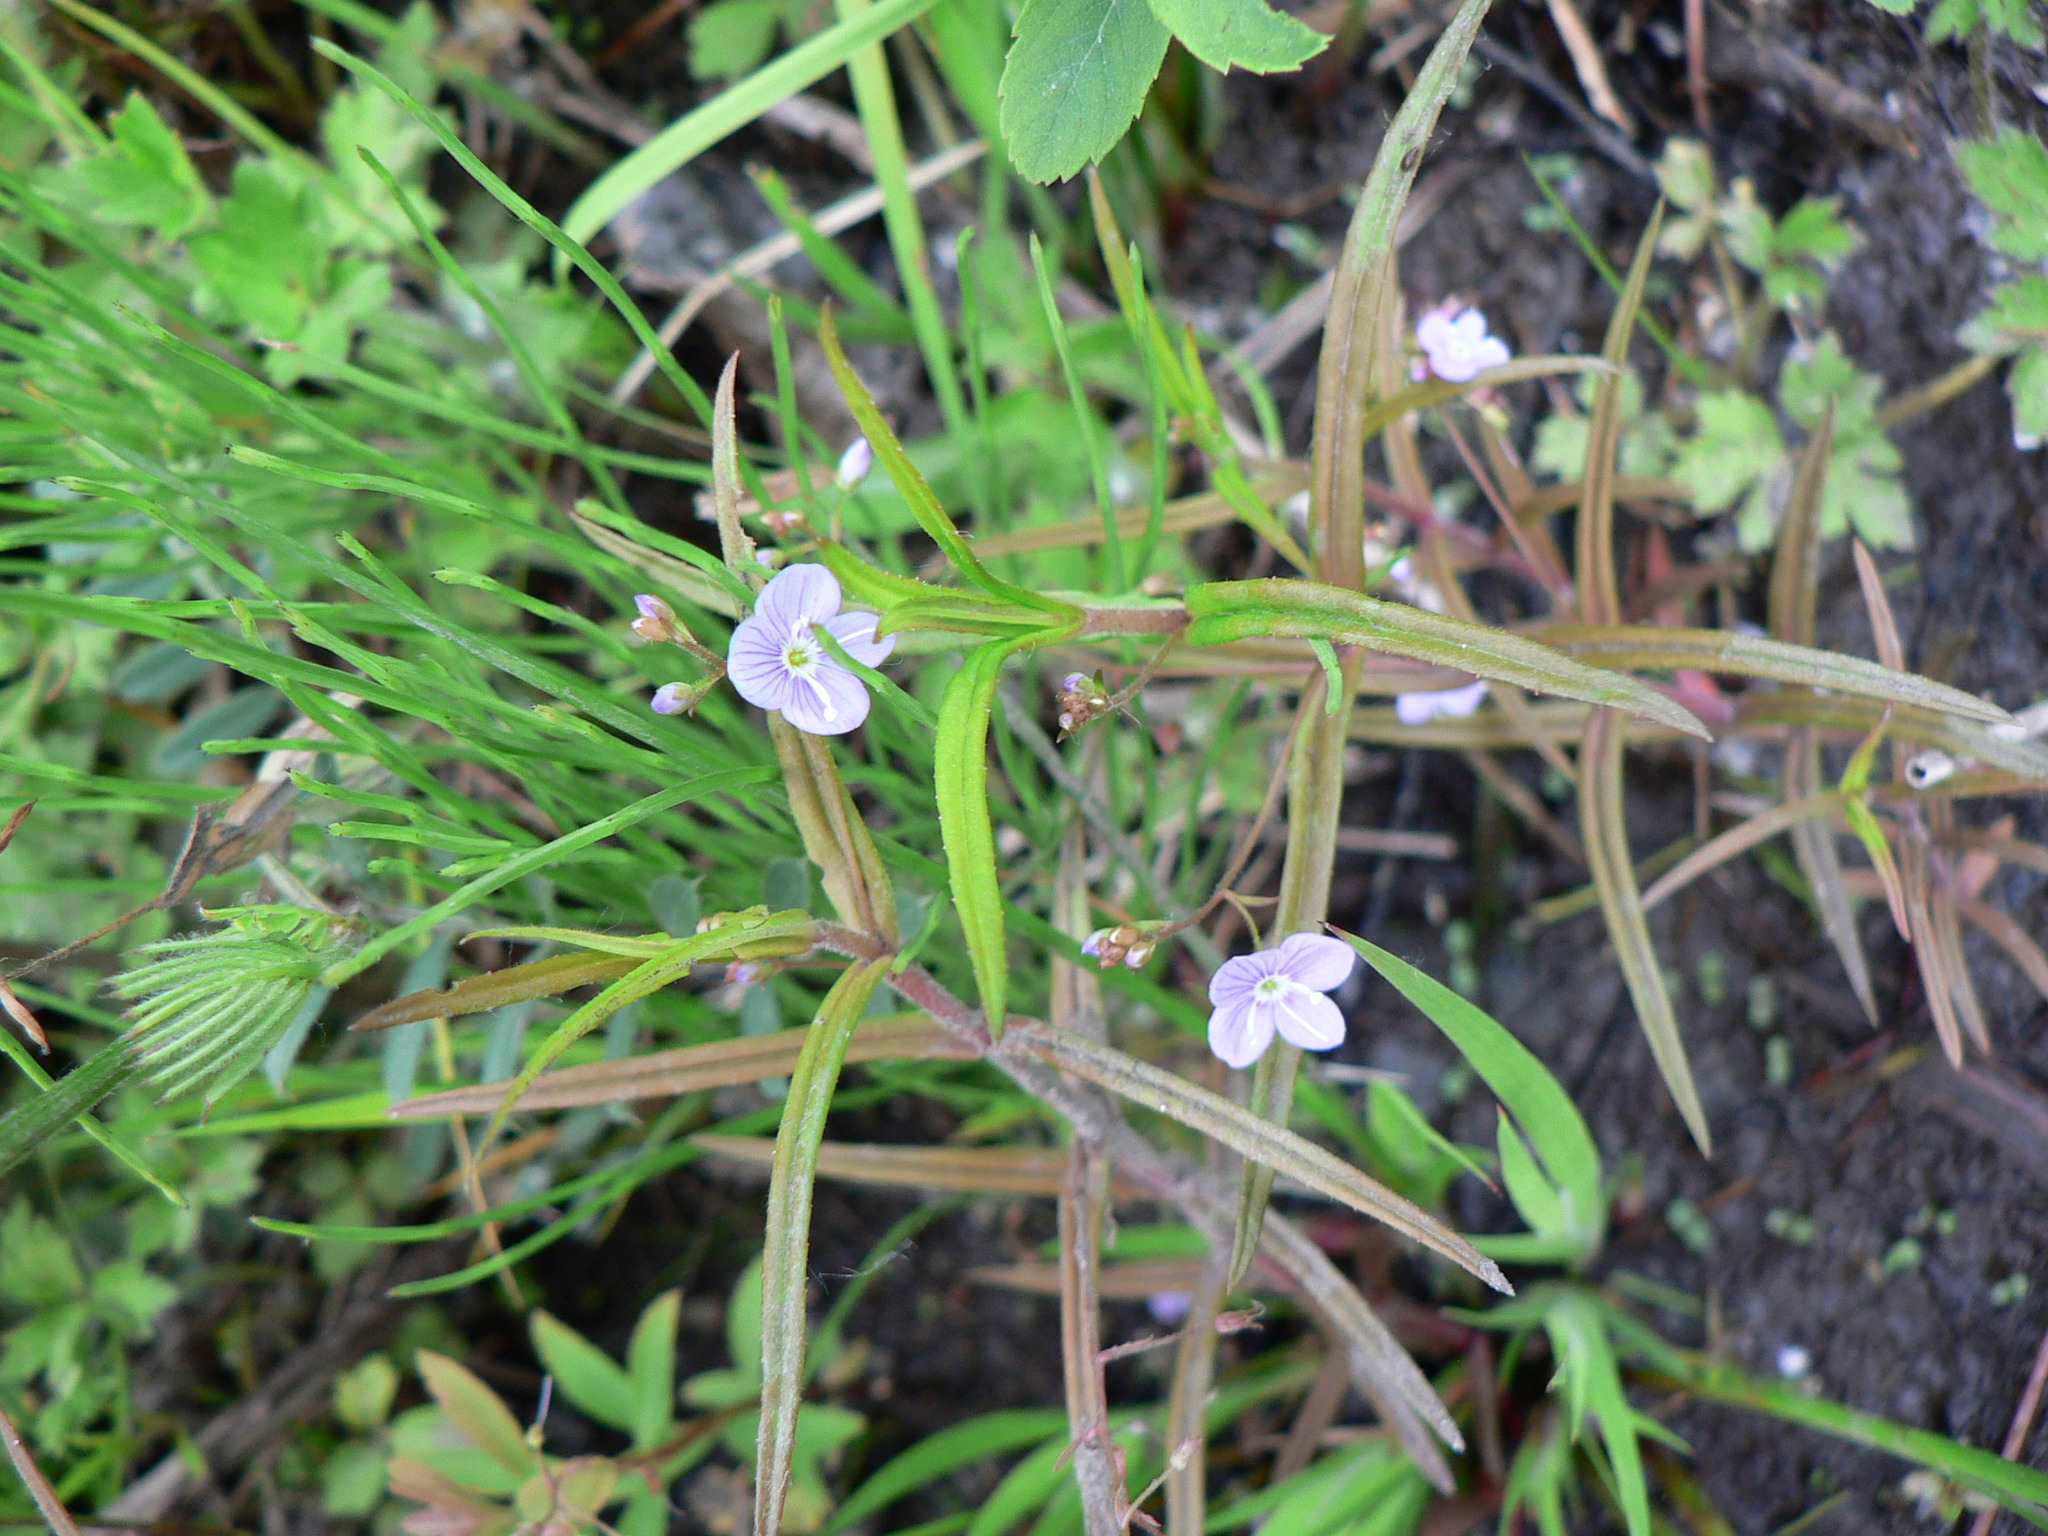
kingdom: Plantae
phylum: Tracheophyta
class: Magnoliopsida
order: Lamiales
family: Plantaginaceae
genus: Veronica
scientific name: Veronica scutellata
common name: Marsh speedwell
